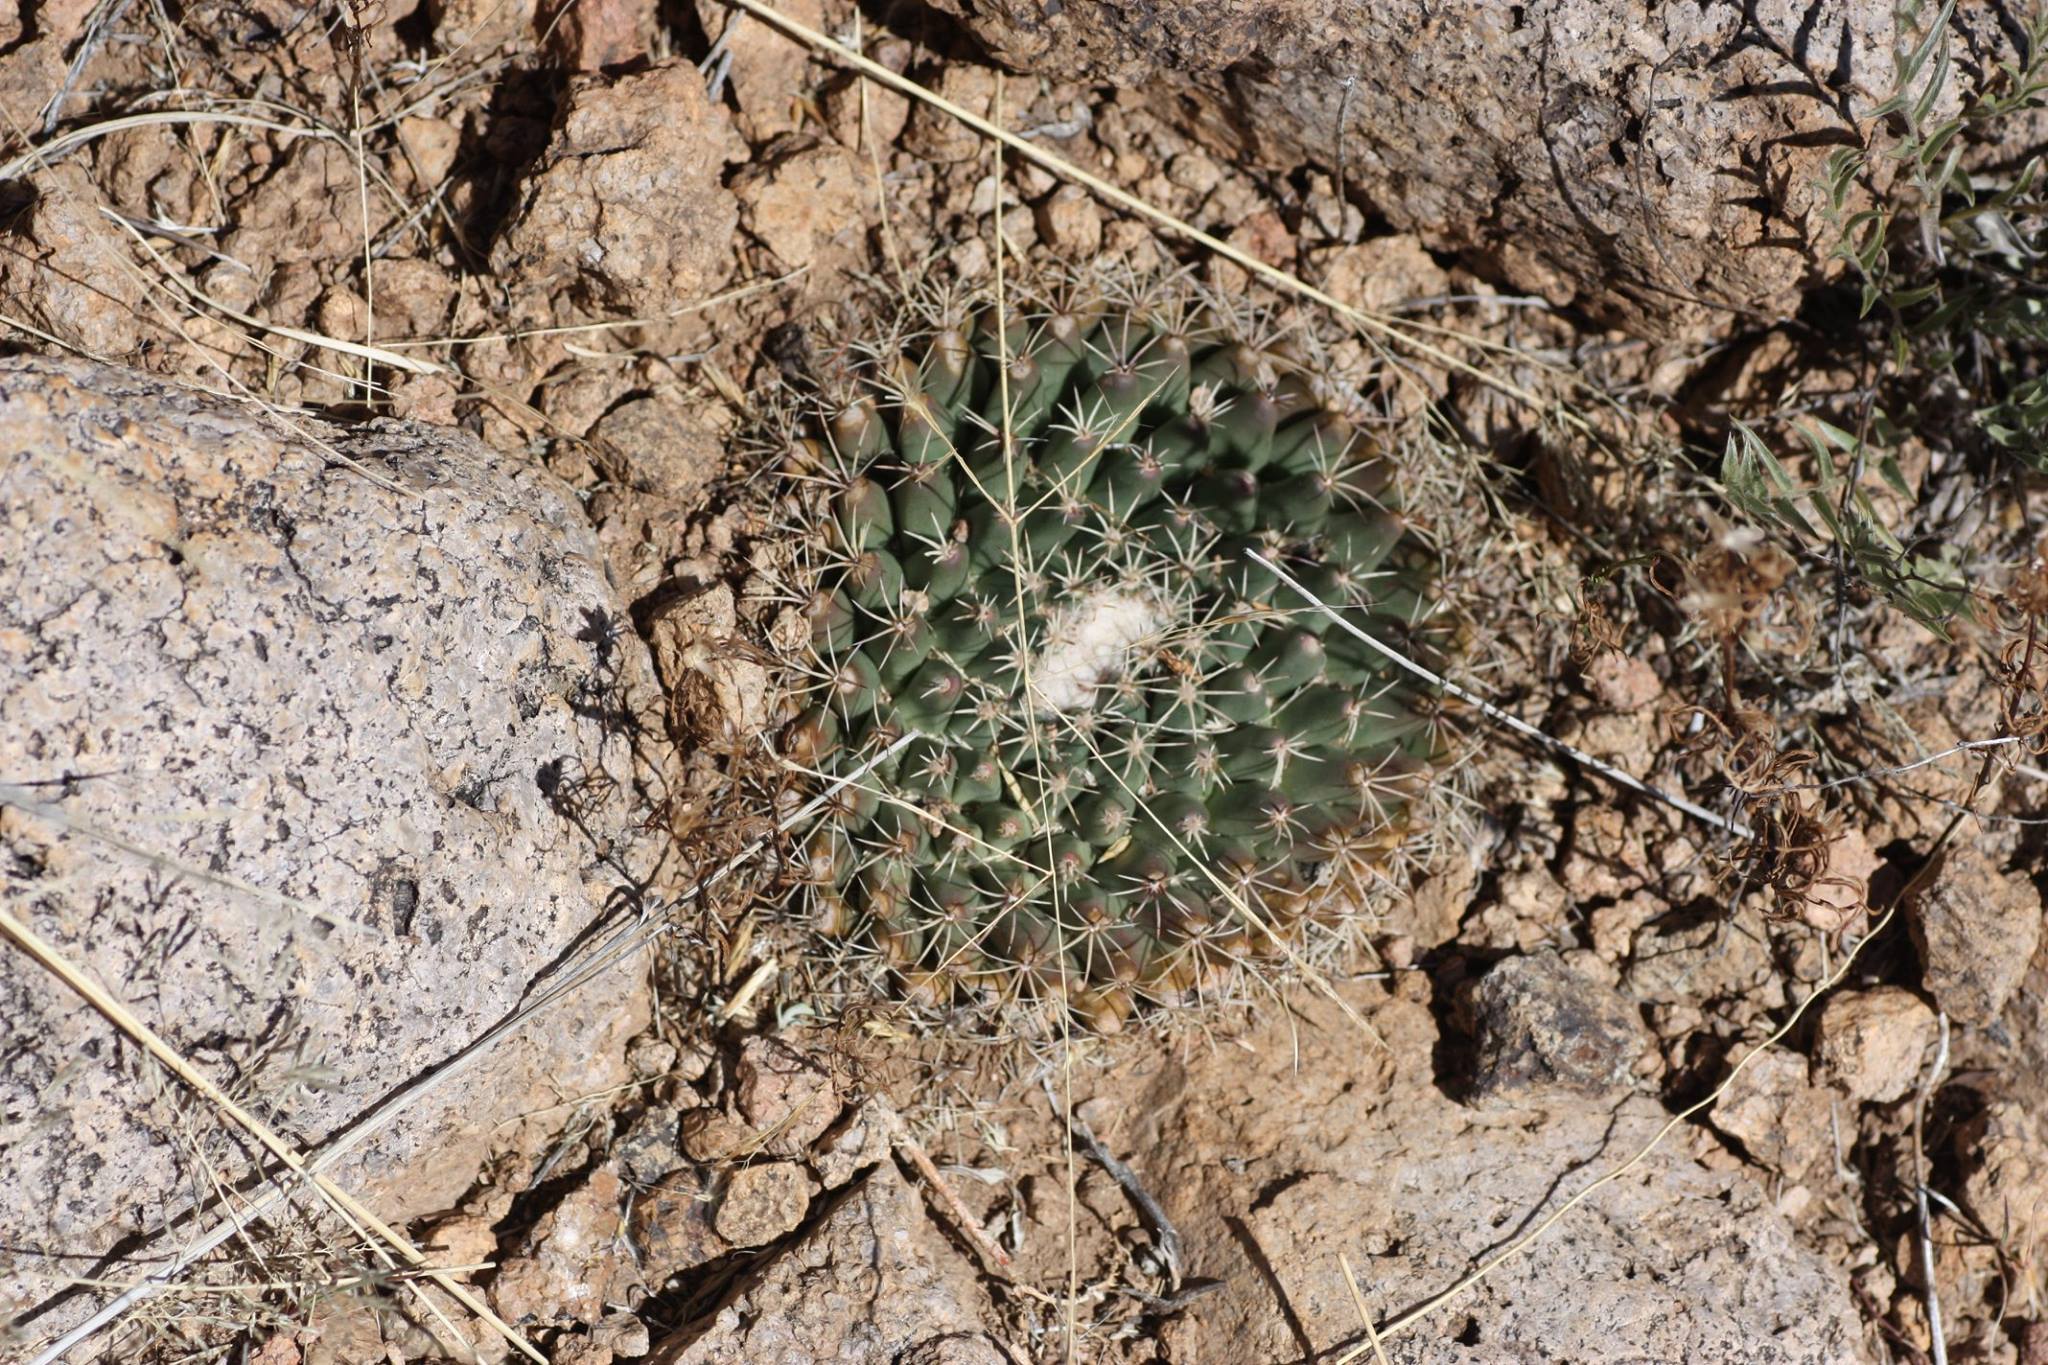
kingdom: Plantae
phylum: Tracheophyta
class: Magnoliopsida
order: Caryophyllales
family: Cactaceae
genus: Mammillaria
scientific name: Mammillaria heyderi
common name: Little nipple cactus
